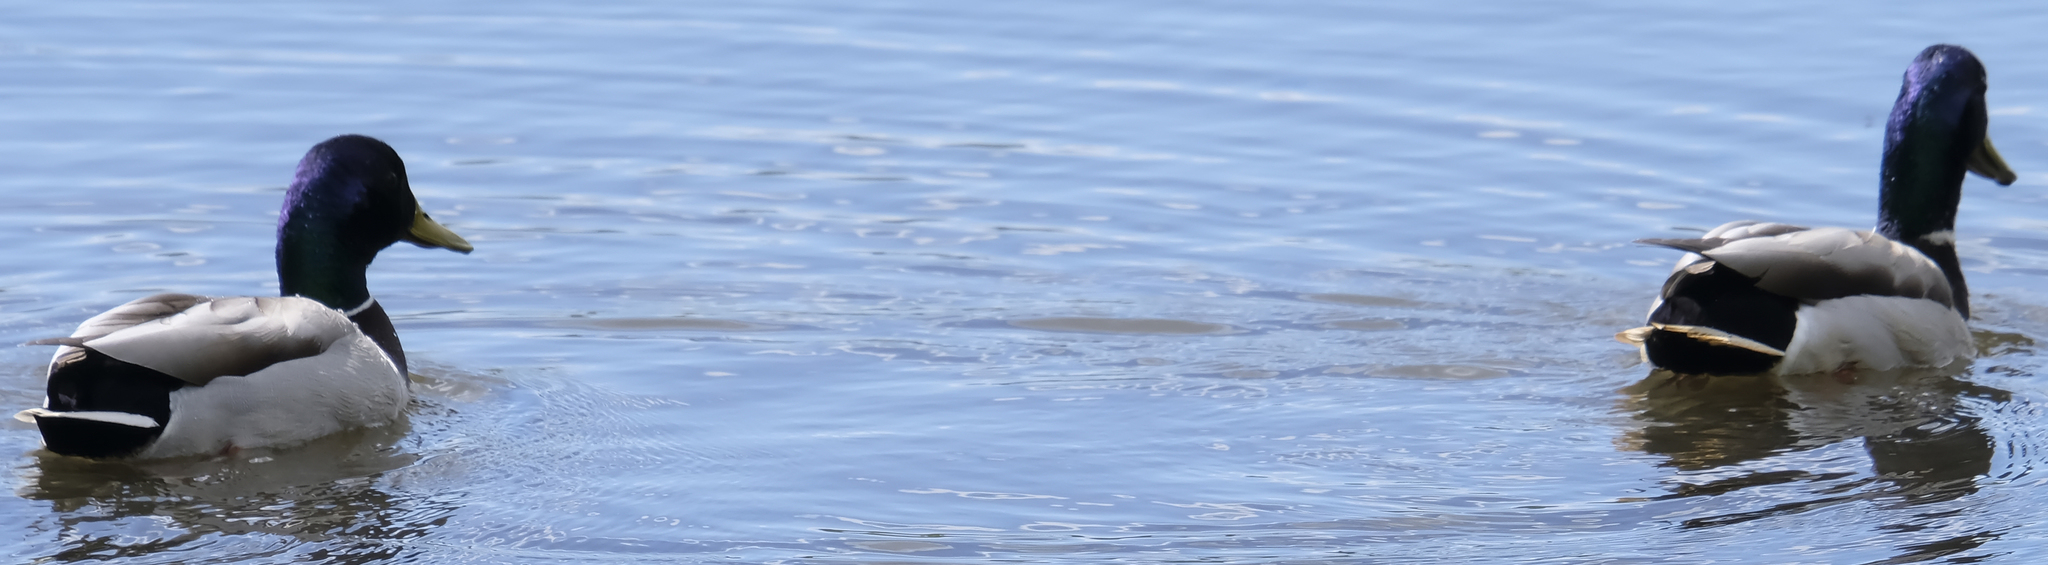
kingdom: Animalia
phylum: Chordata
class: Aves
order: Anseriformes
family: Anatidae
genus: Anas
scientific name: Anas platyrhynchos
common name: Mallard
